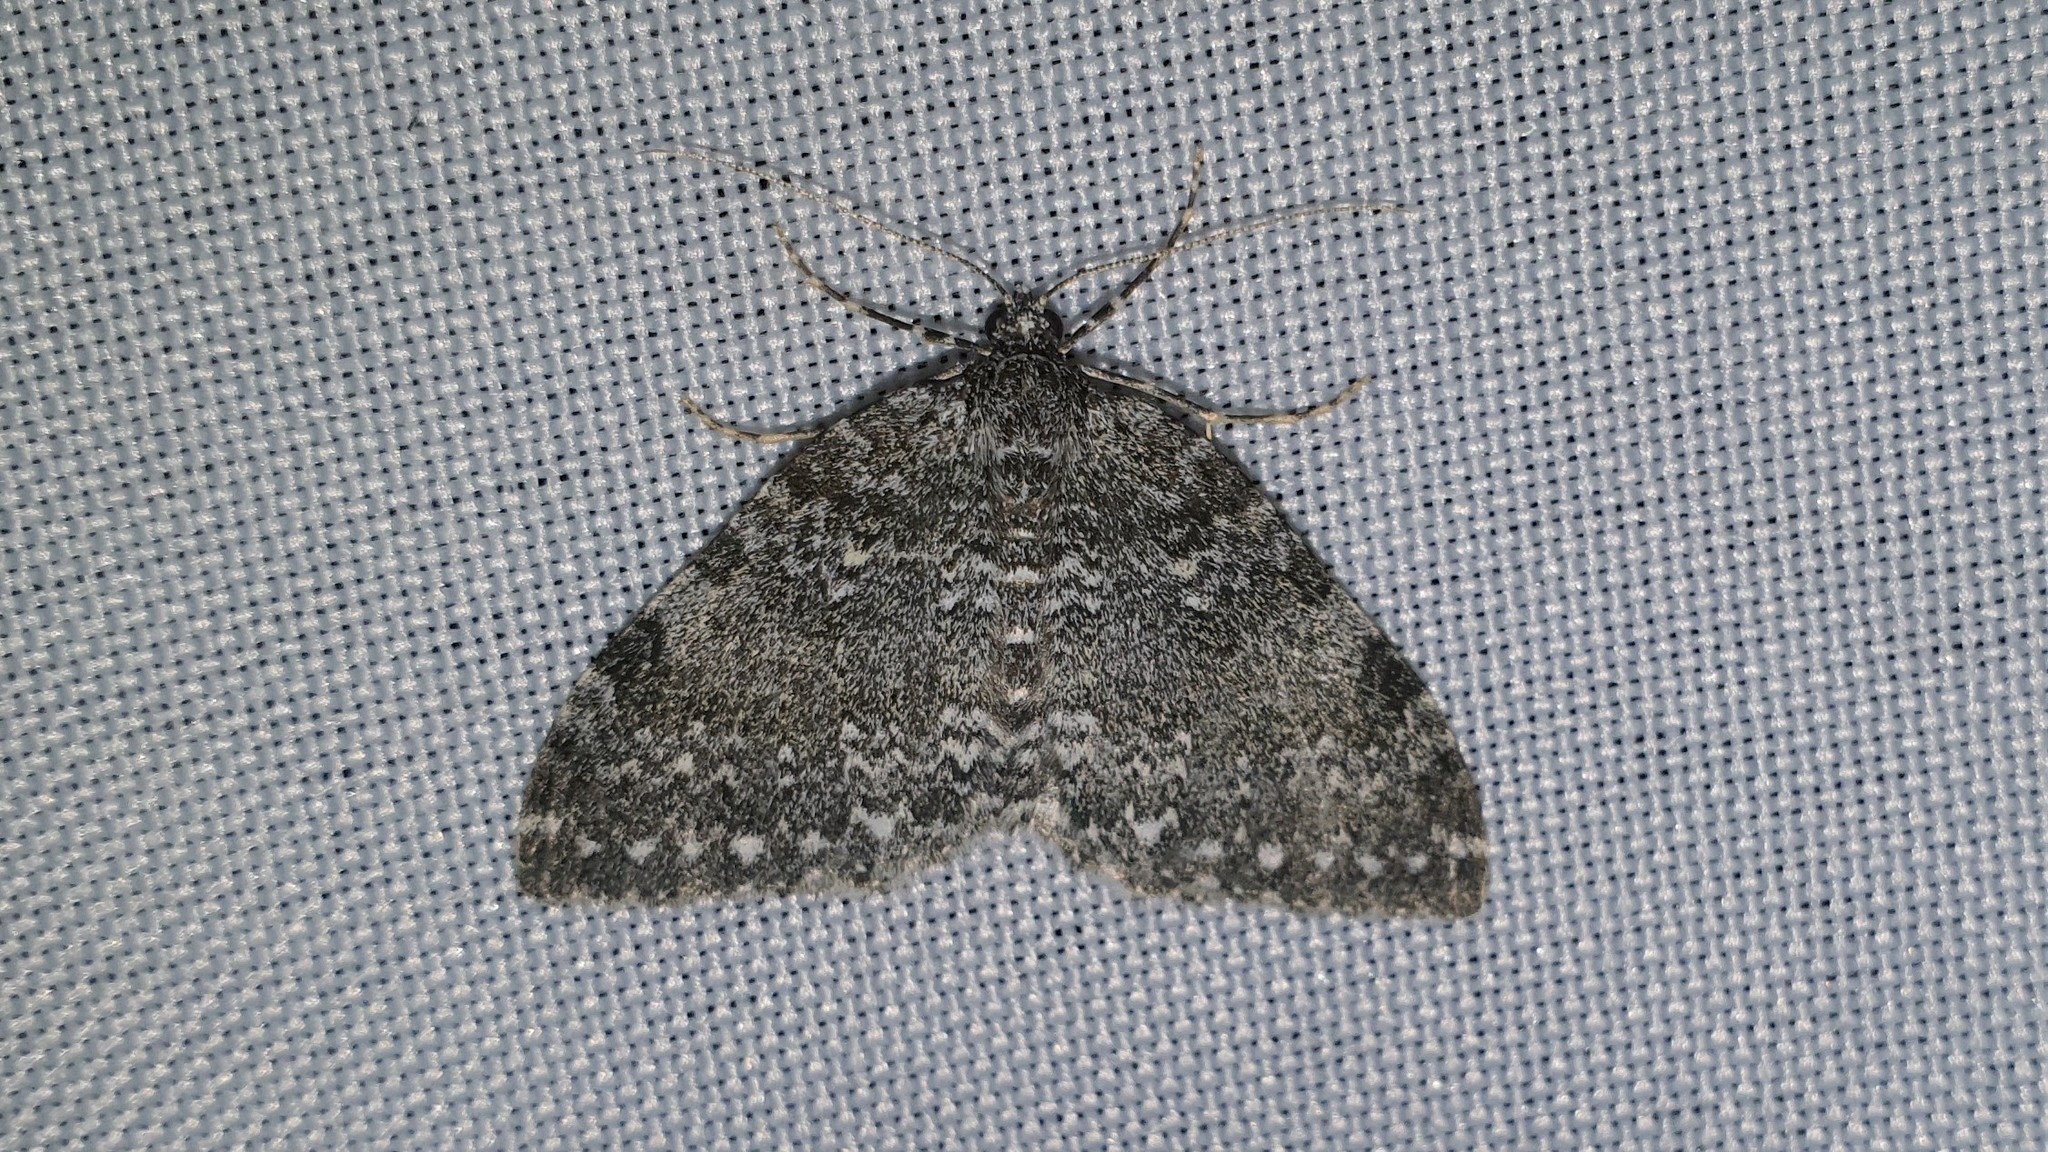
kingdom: Animalia
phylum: Arthropoda
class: Insecta
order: Lepidoptera
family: Geometridae
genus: Entephria
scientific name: Entephria caeruleata
